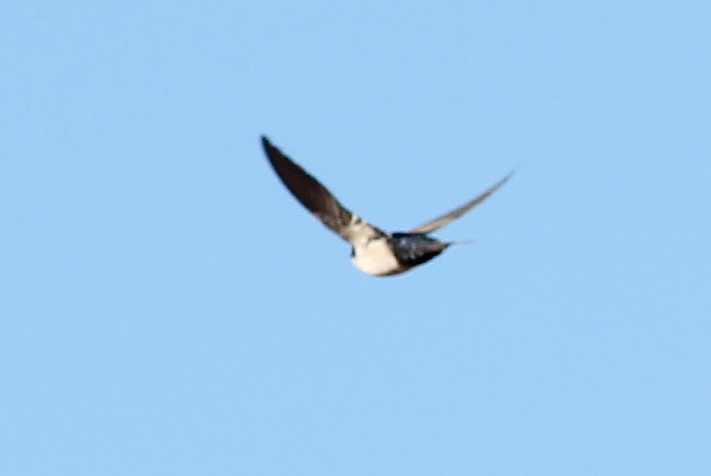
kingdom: Animalia
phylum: Chordata
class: Aves
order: Passeriformes
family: Hirundinidae
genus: Notiochelidon
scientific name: Notiochelidon cyanoleuca
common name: Blue-and-white swallow
